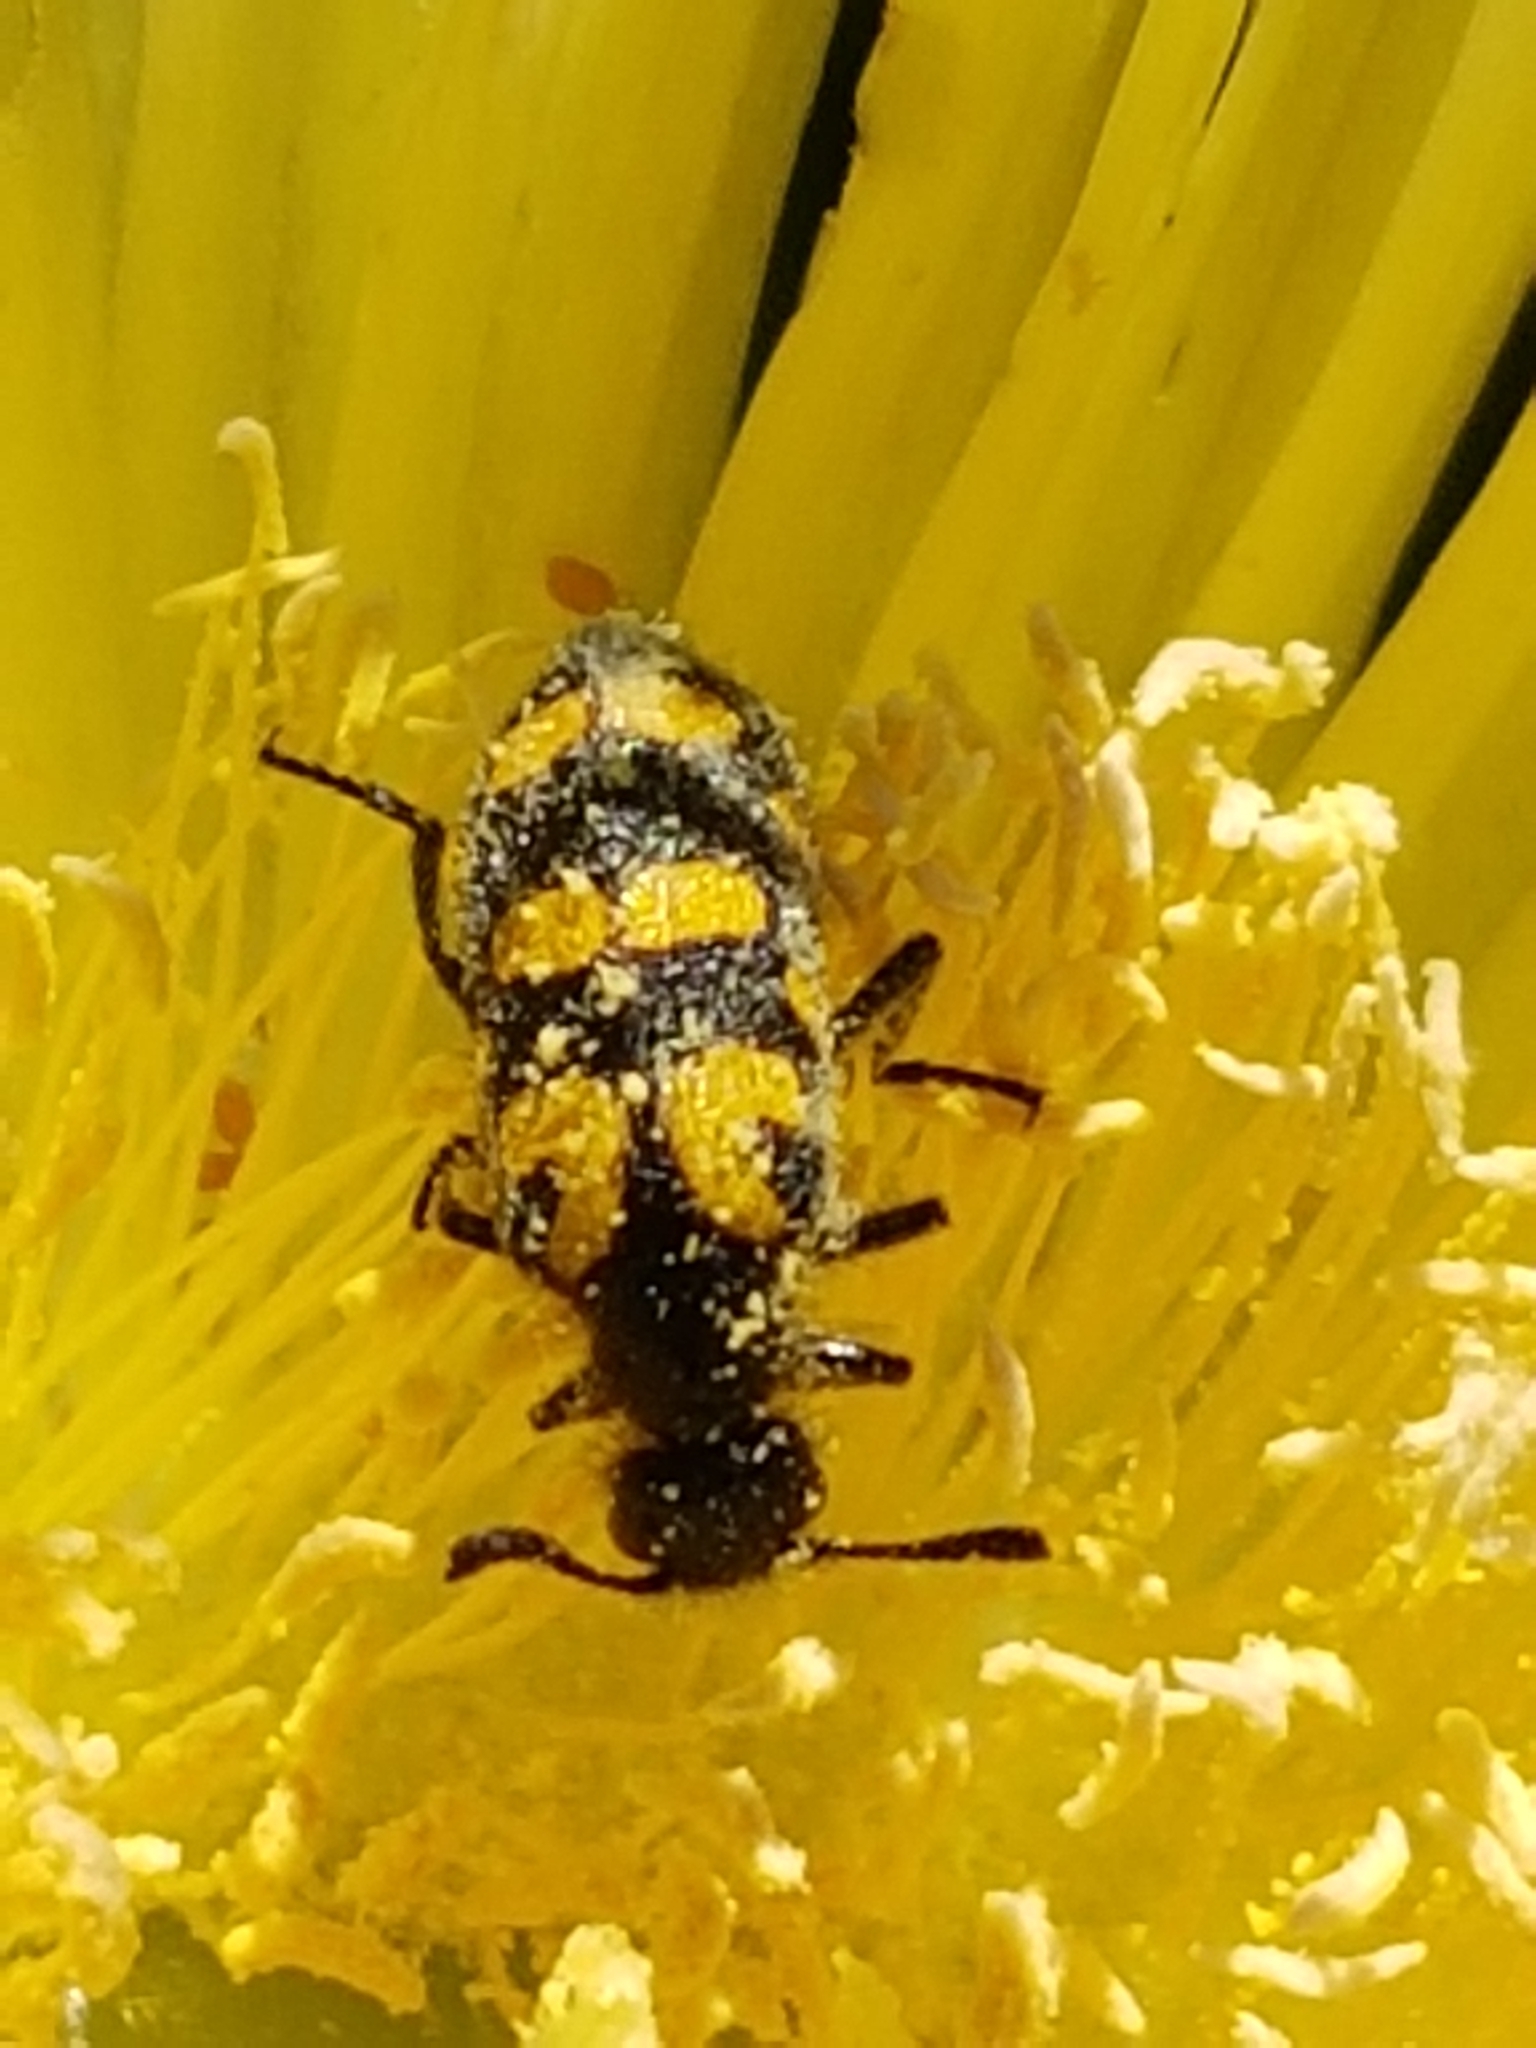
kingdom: Animalia
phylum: Arthropoda
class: Insecta
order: Coleoptera
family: Meloidae
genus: Ceroctis
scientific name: Ceroctis capensis
